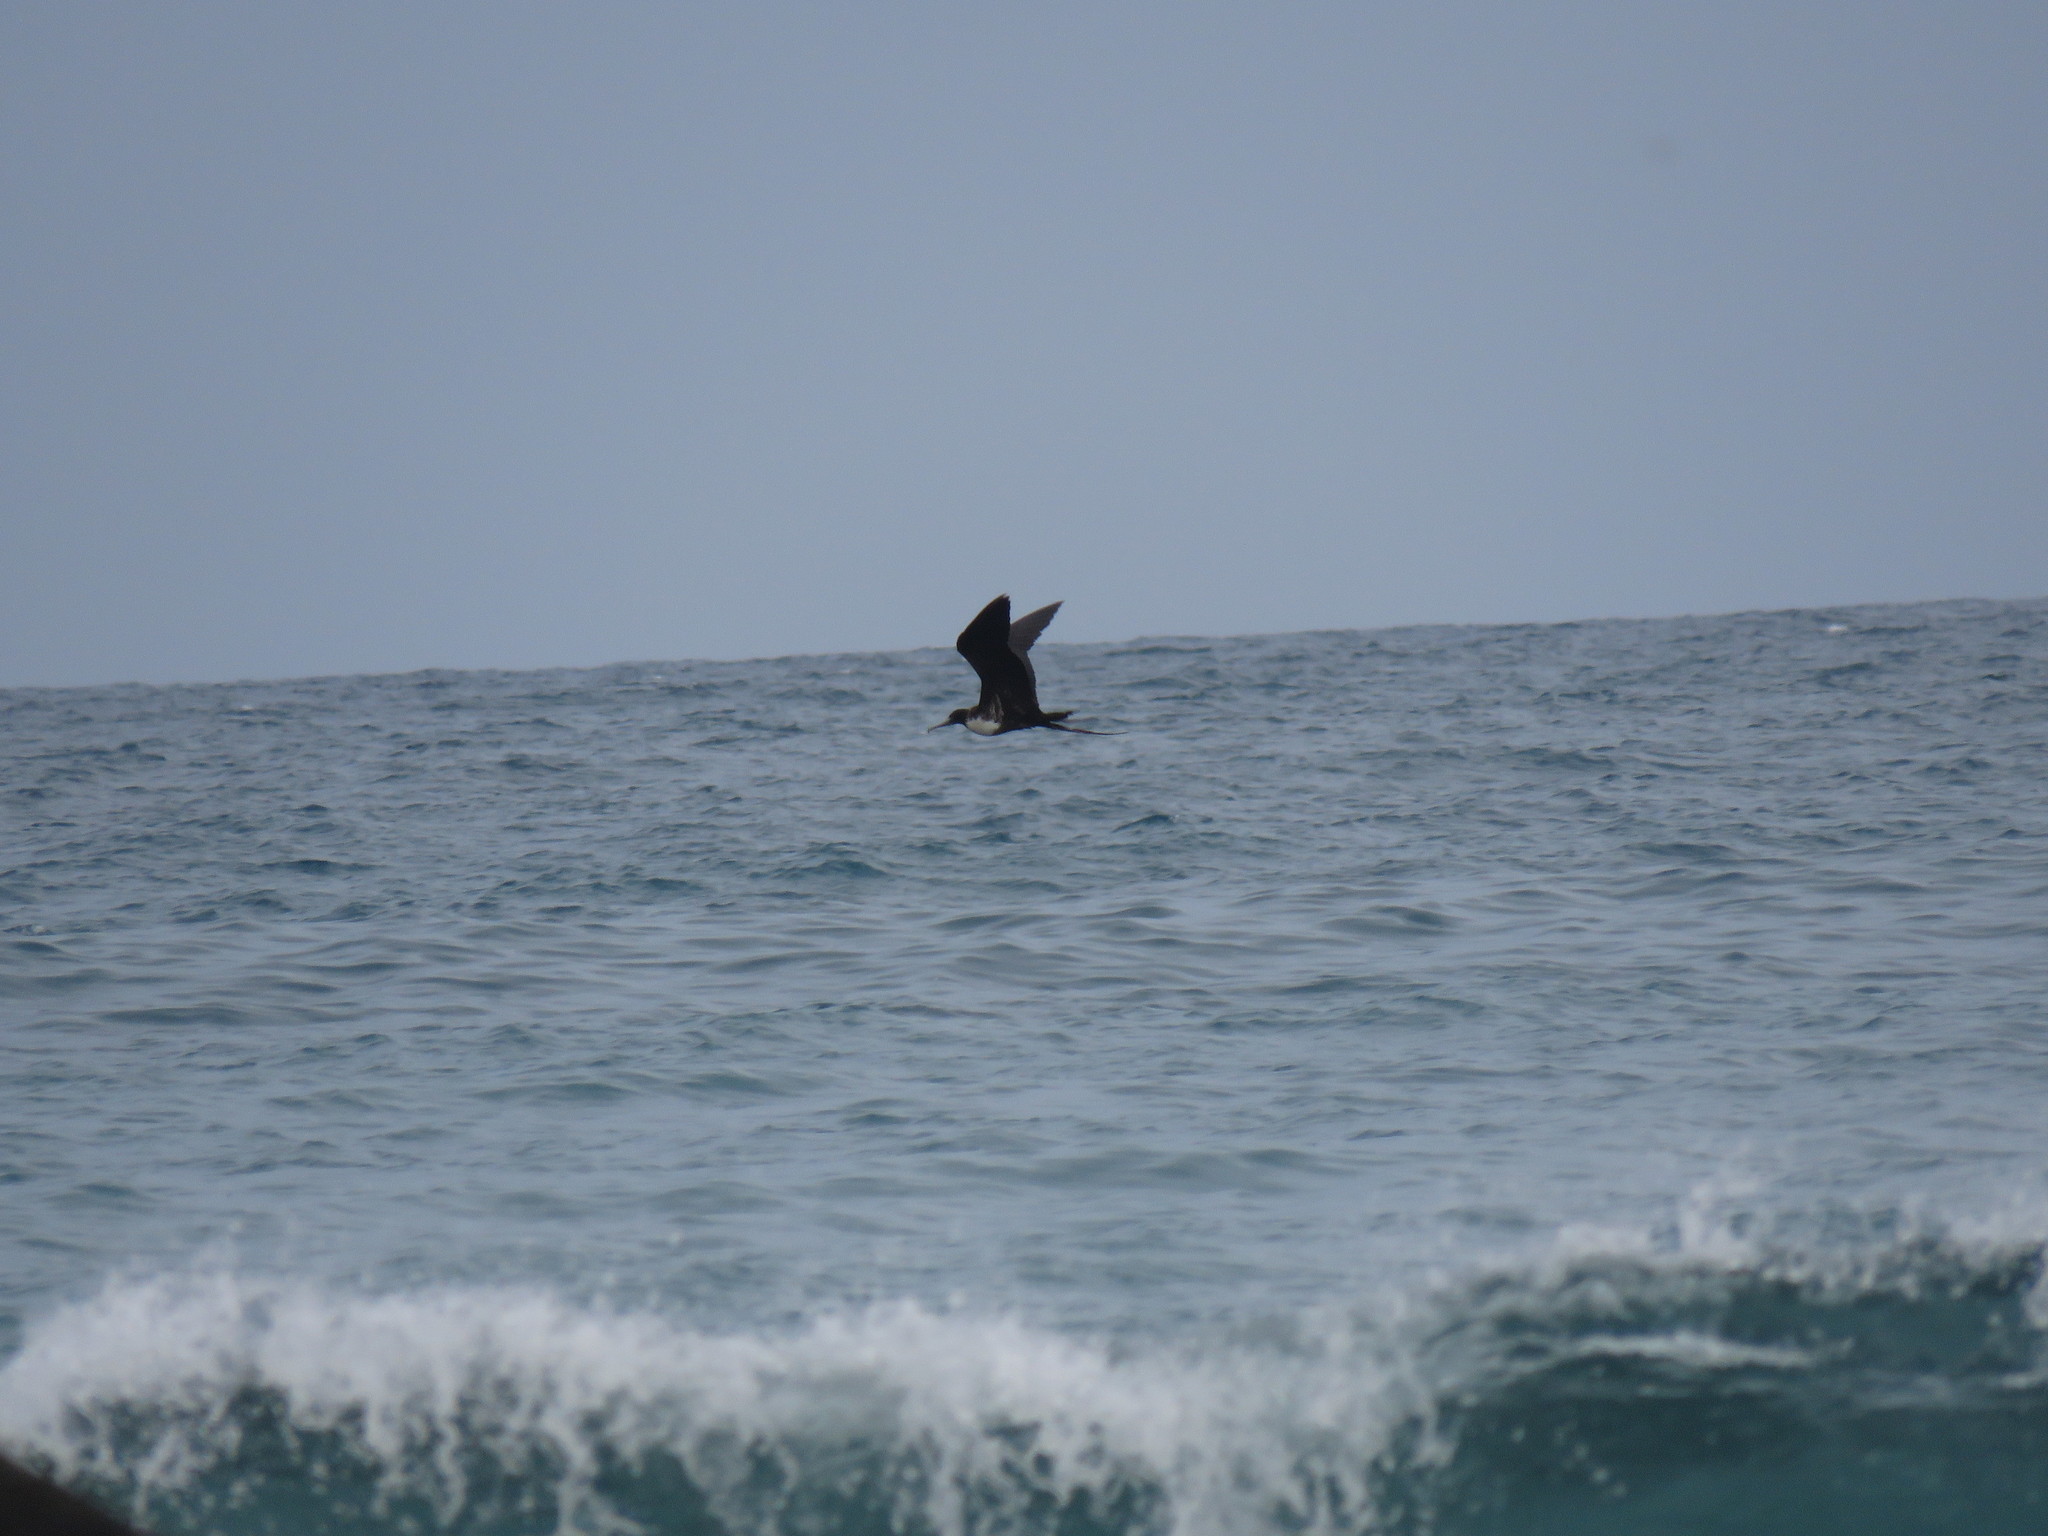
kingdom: Animalia
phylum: Chordata
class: Aves
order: Suliformes
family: Fregatidae
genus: Fregata
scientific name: Fregata magnificens
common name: Magnificent frigatebird
